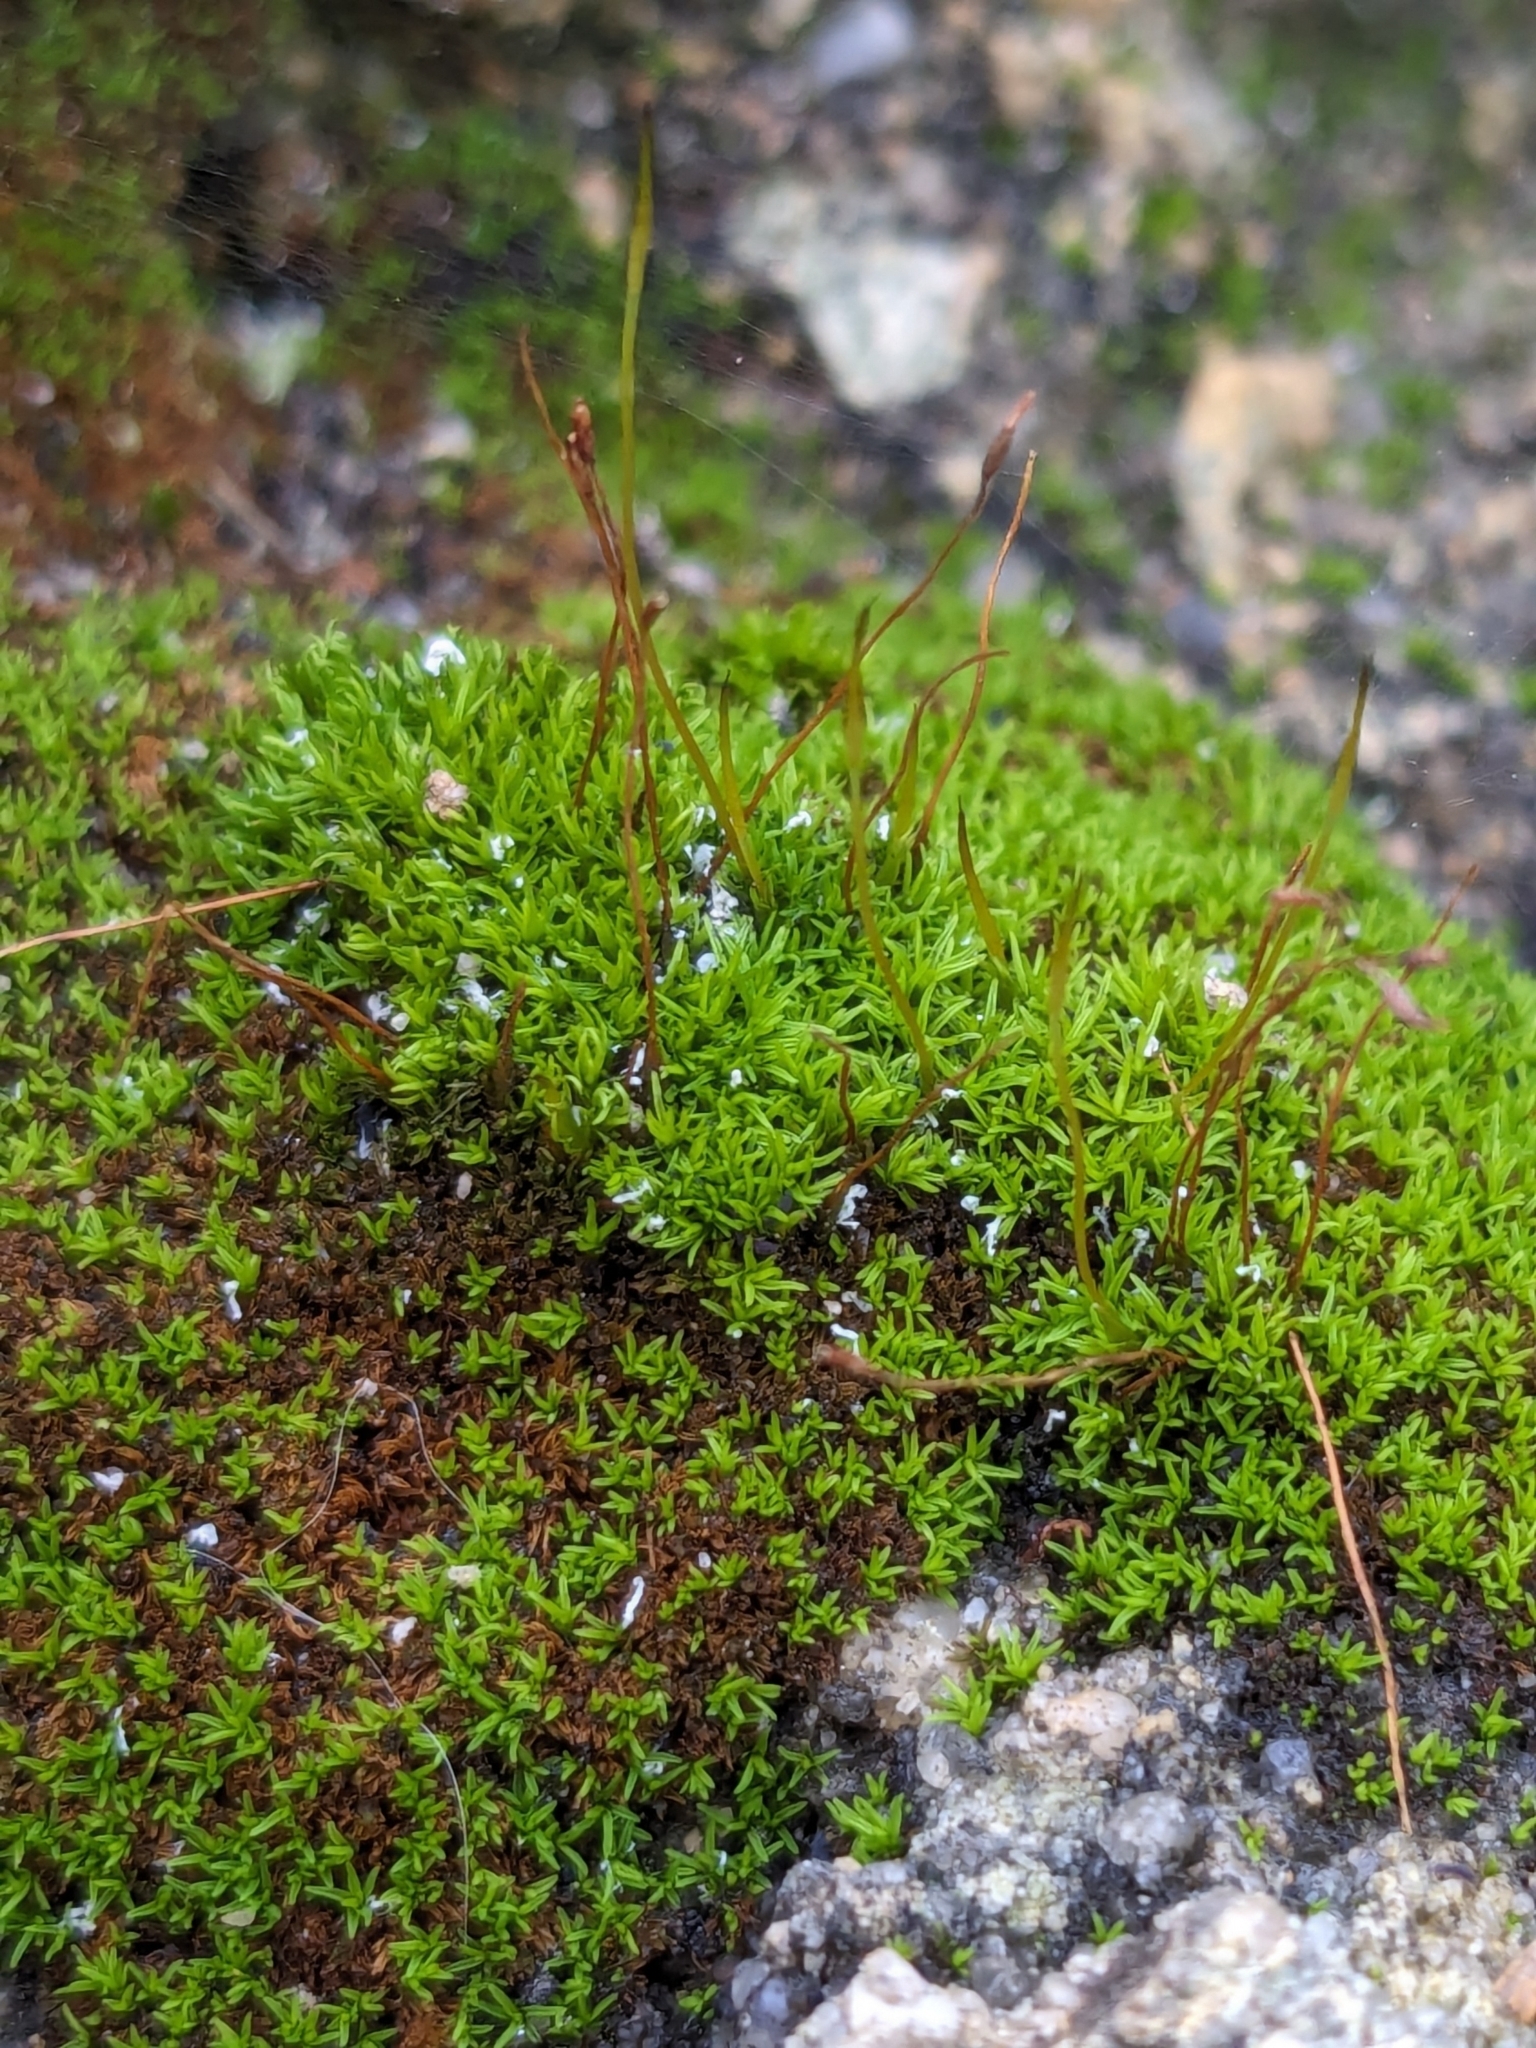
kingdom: Plantae
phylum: Bryophyta
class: Bryopsida
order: Pottiales
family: Pottiaceae
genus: Pseudocrossidium
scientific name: Pseudocrossidium revolutum
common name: Revolute beard-moss
